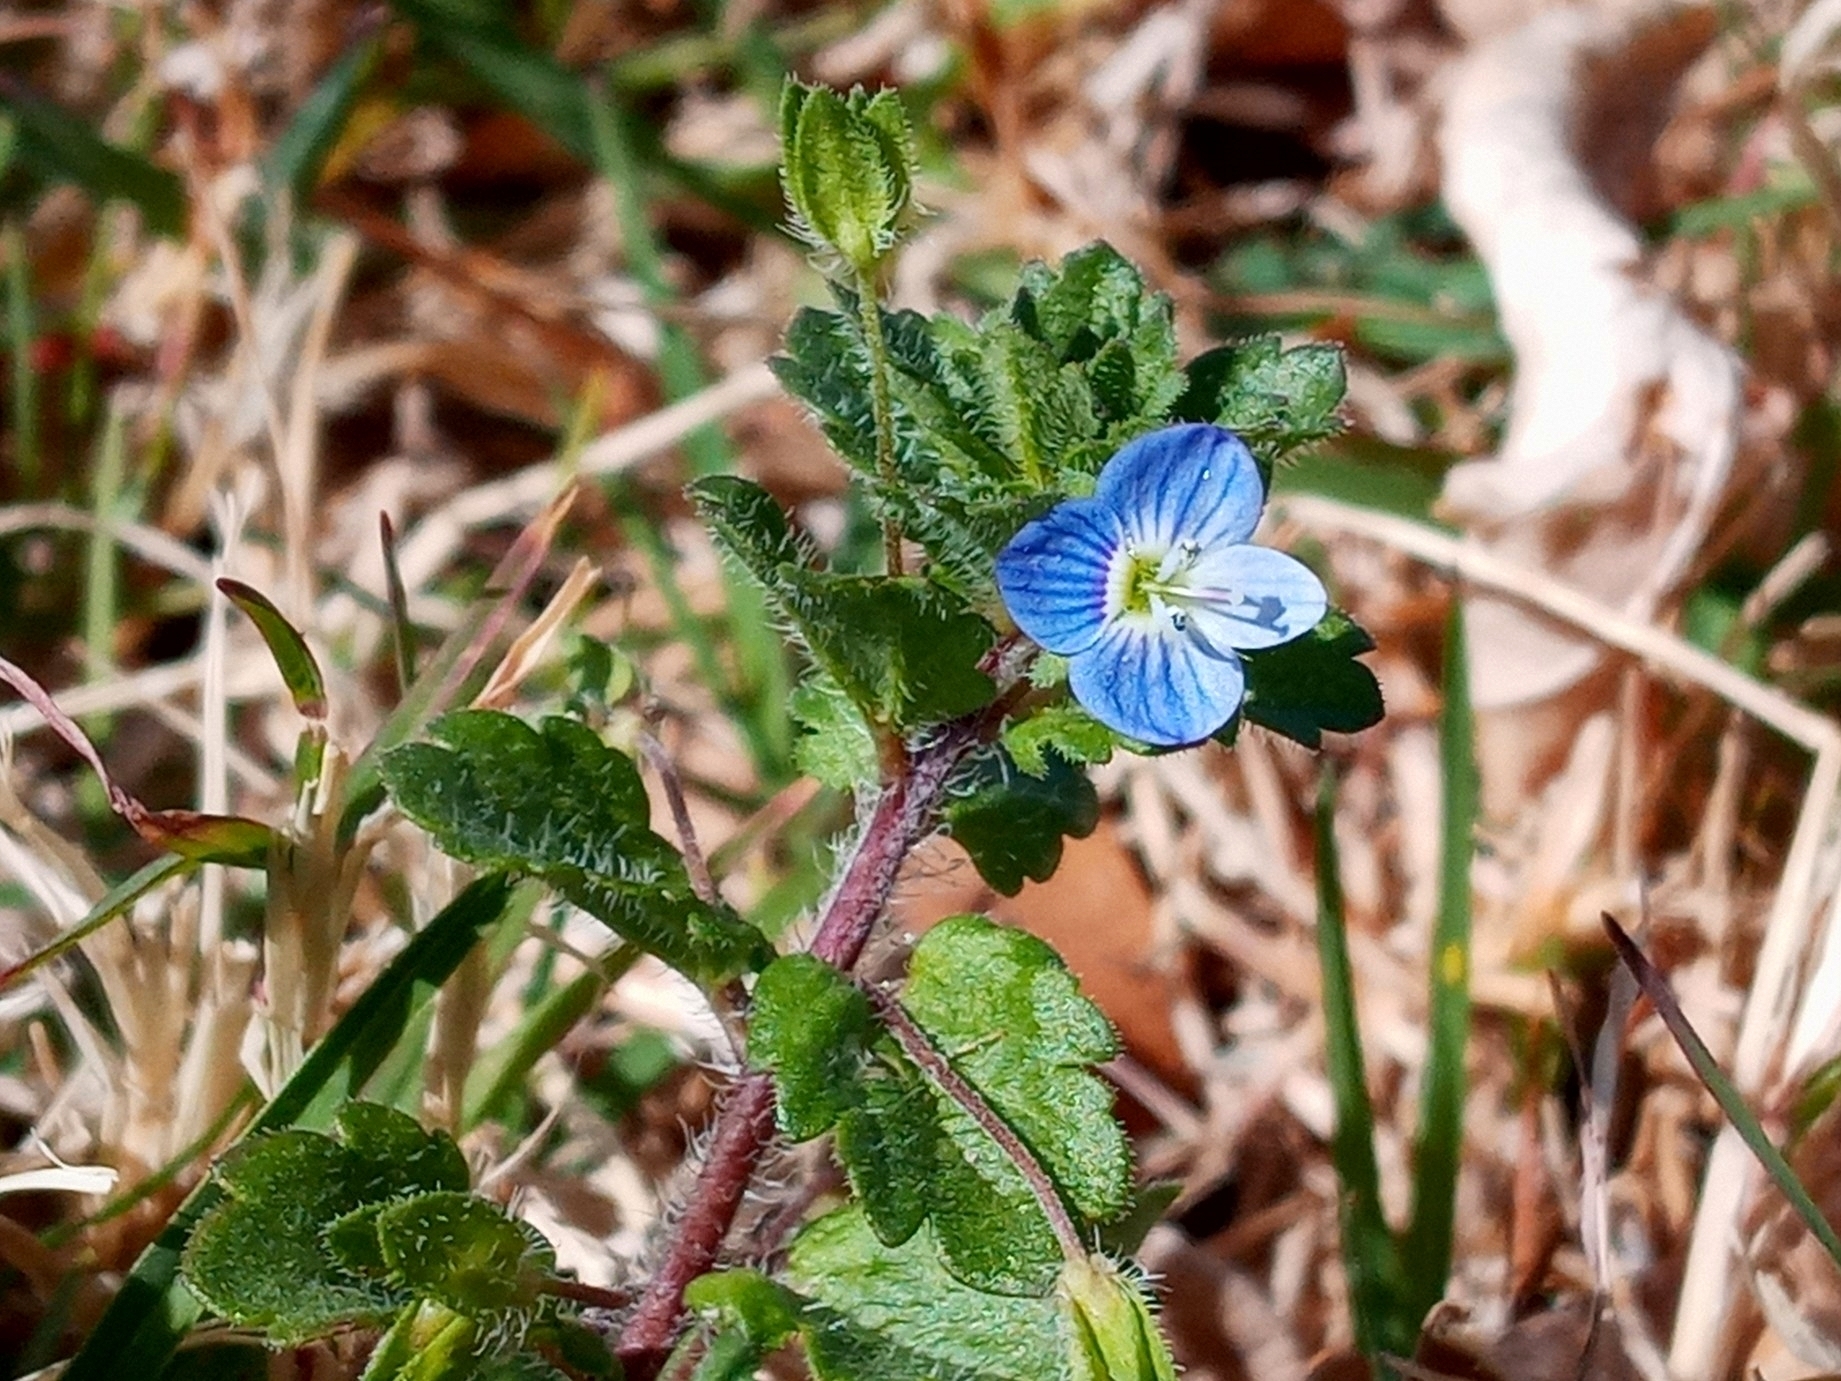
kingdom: Plantae
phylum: Tracheophyta
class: Magnoliopsida
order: Lamiales
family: Plantaginaceae
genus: Veronica
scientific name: Veronica persica
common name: Common field-speedwell
